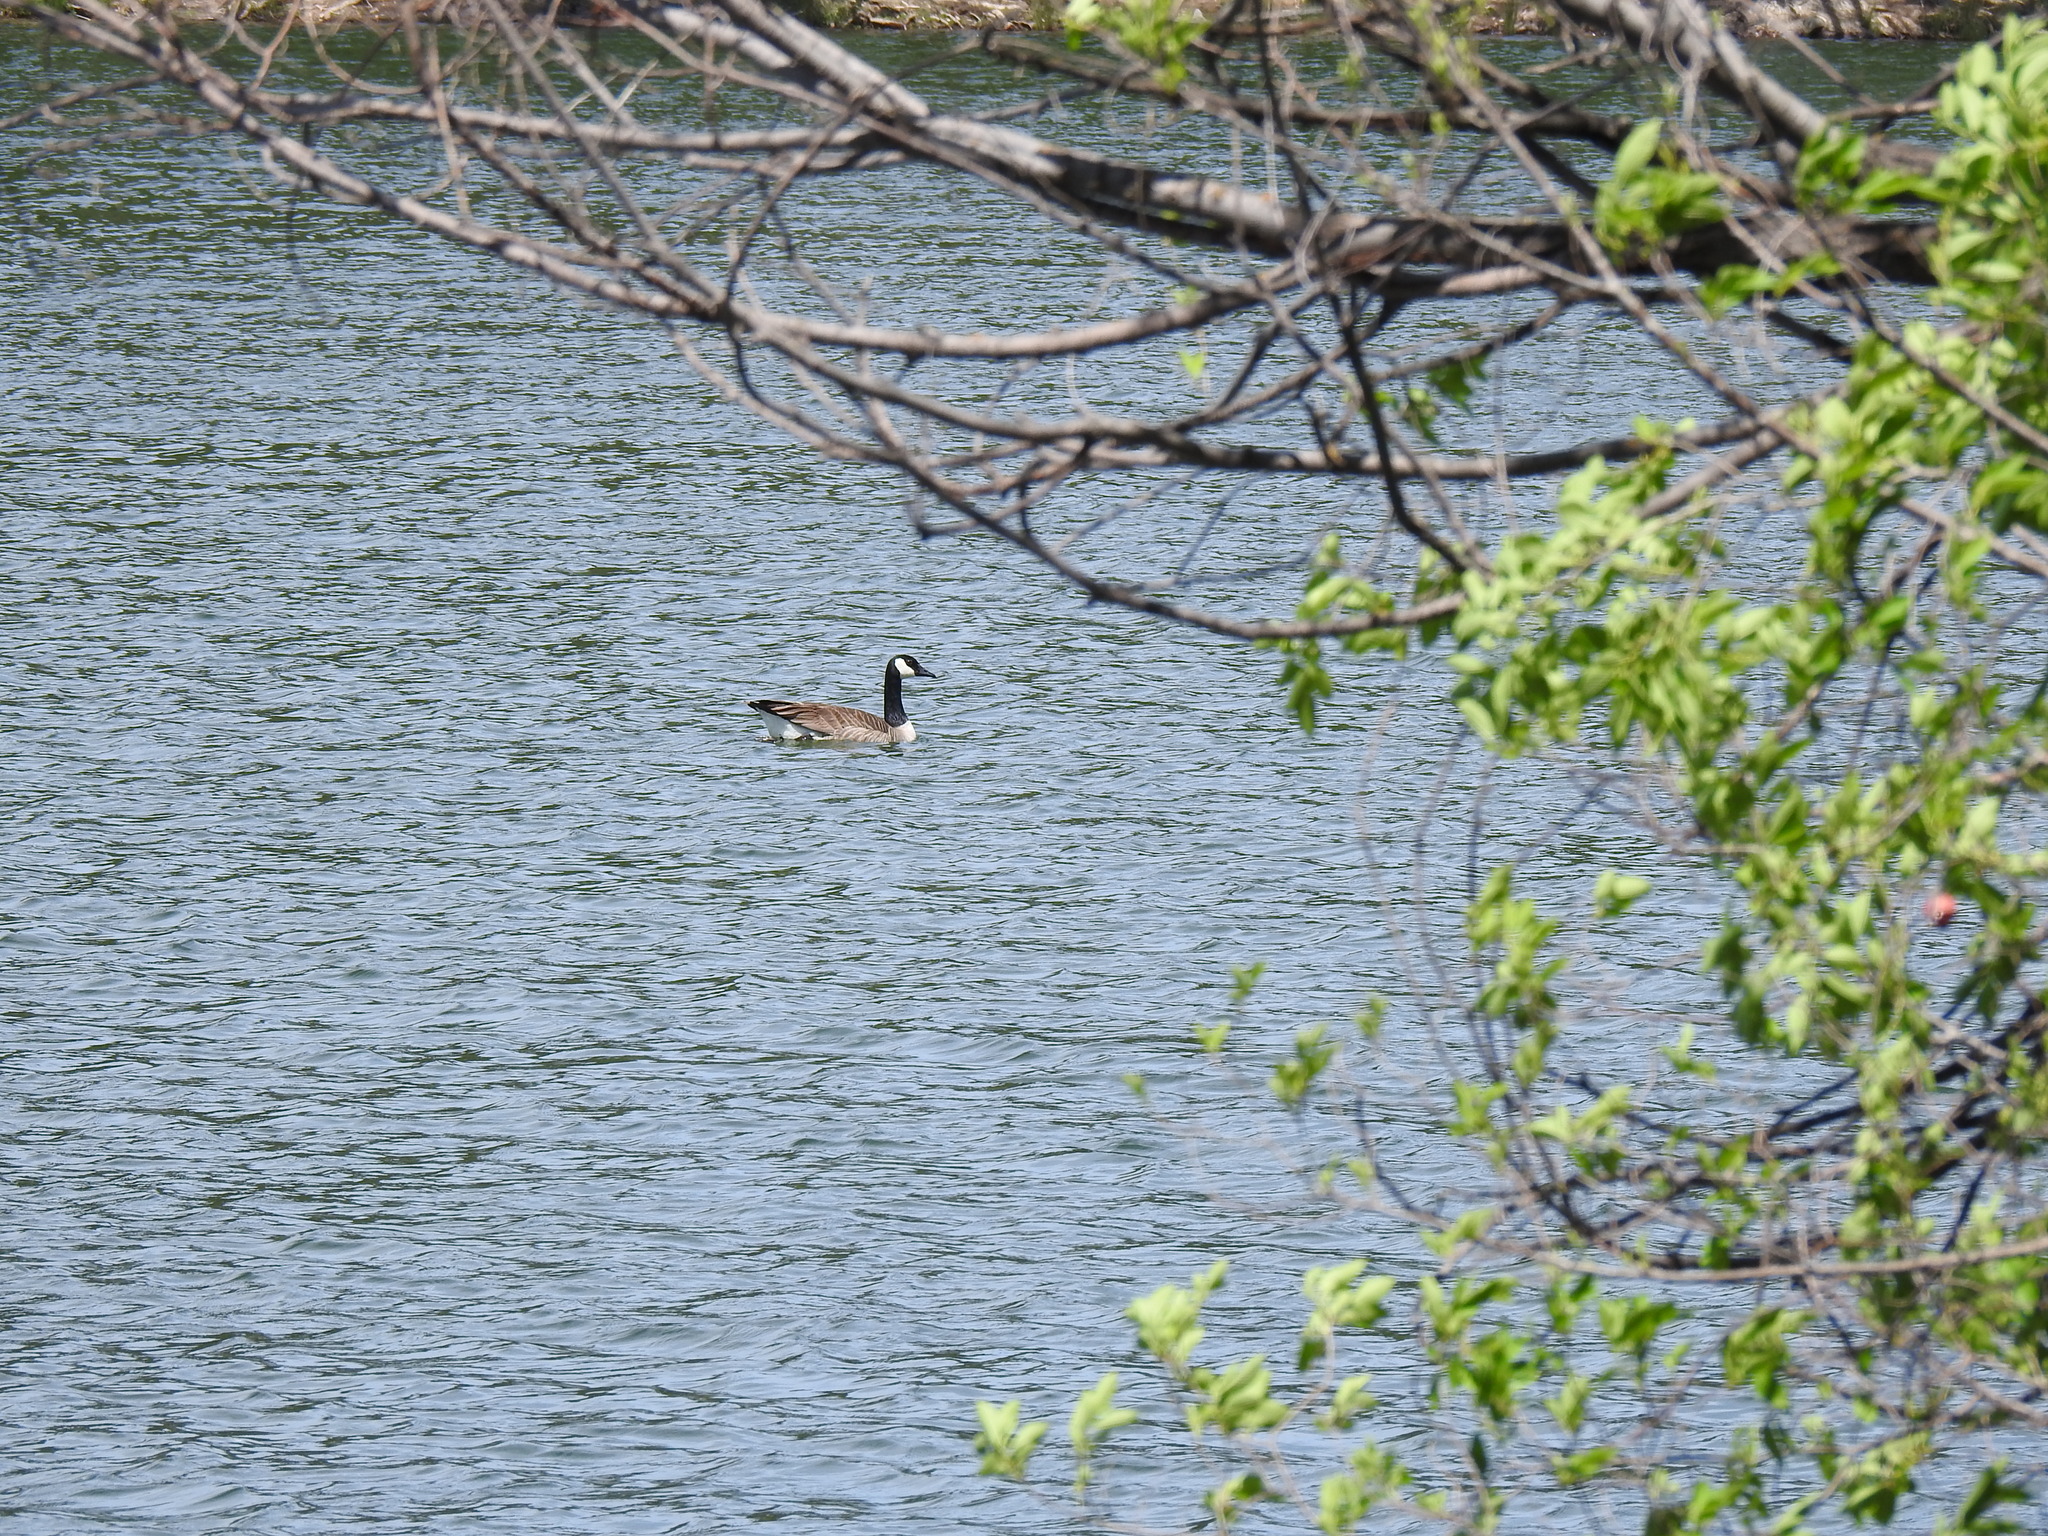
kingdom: Animalia
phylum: Chordata
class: Aves
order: Anseriformes
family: Anatidae
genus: Branta
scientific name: Branta canadensis
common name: Canada goose
